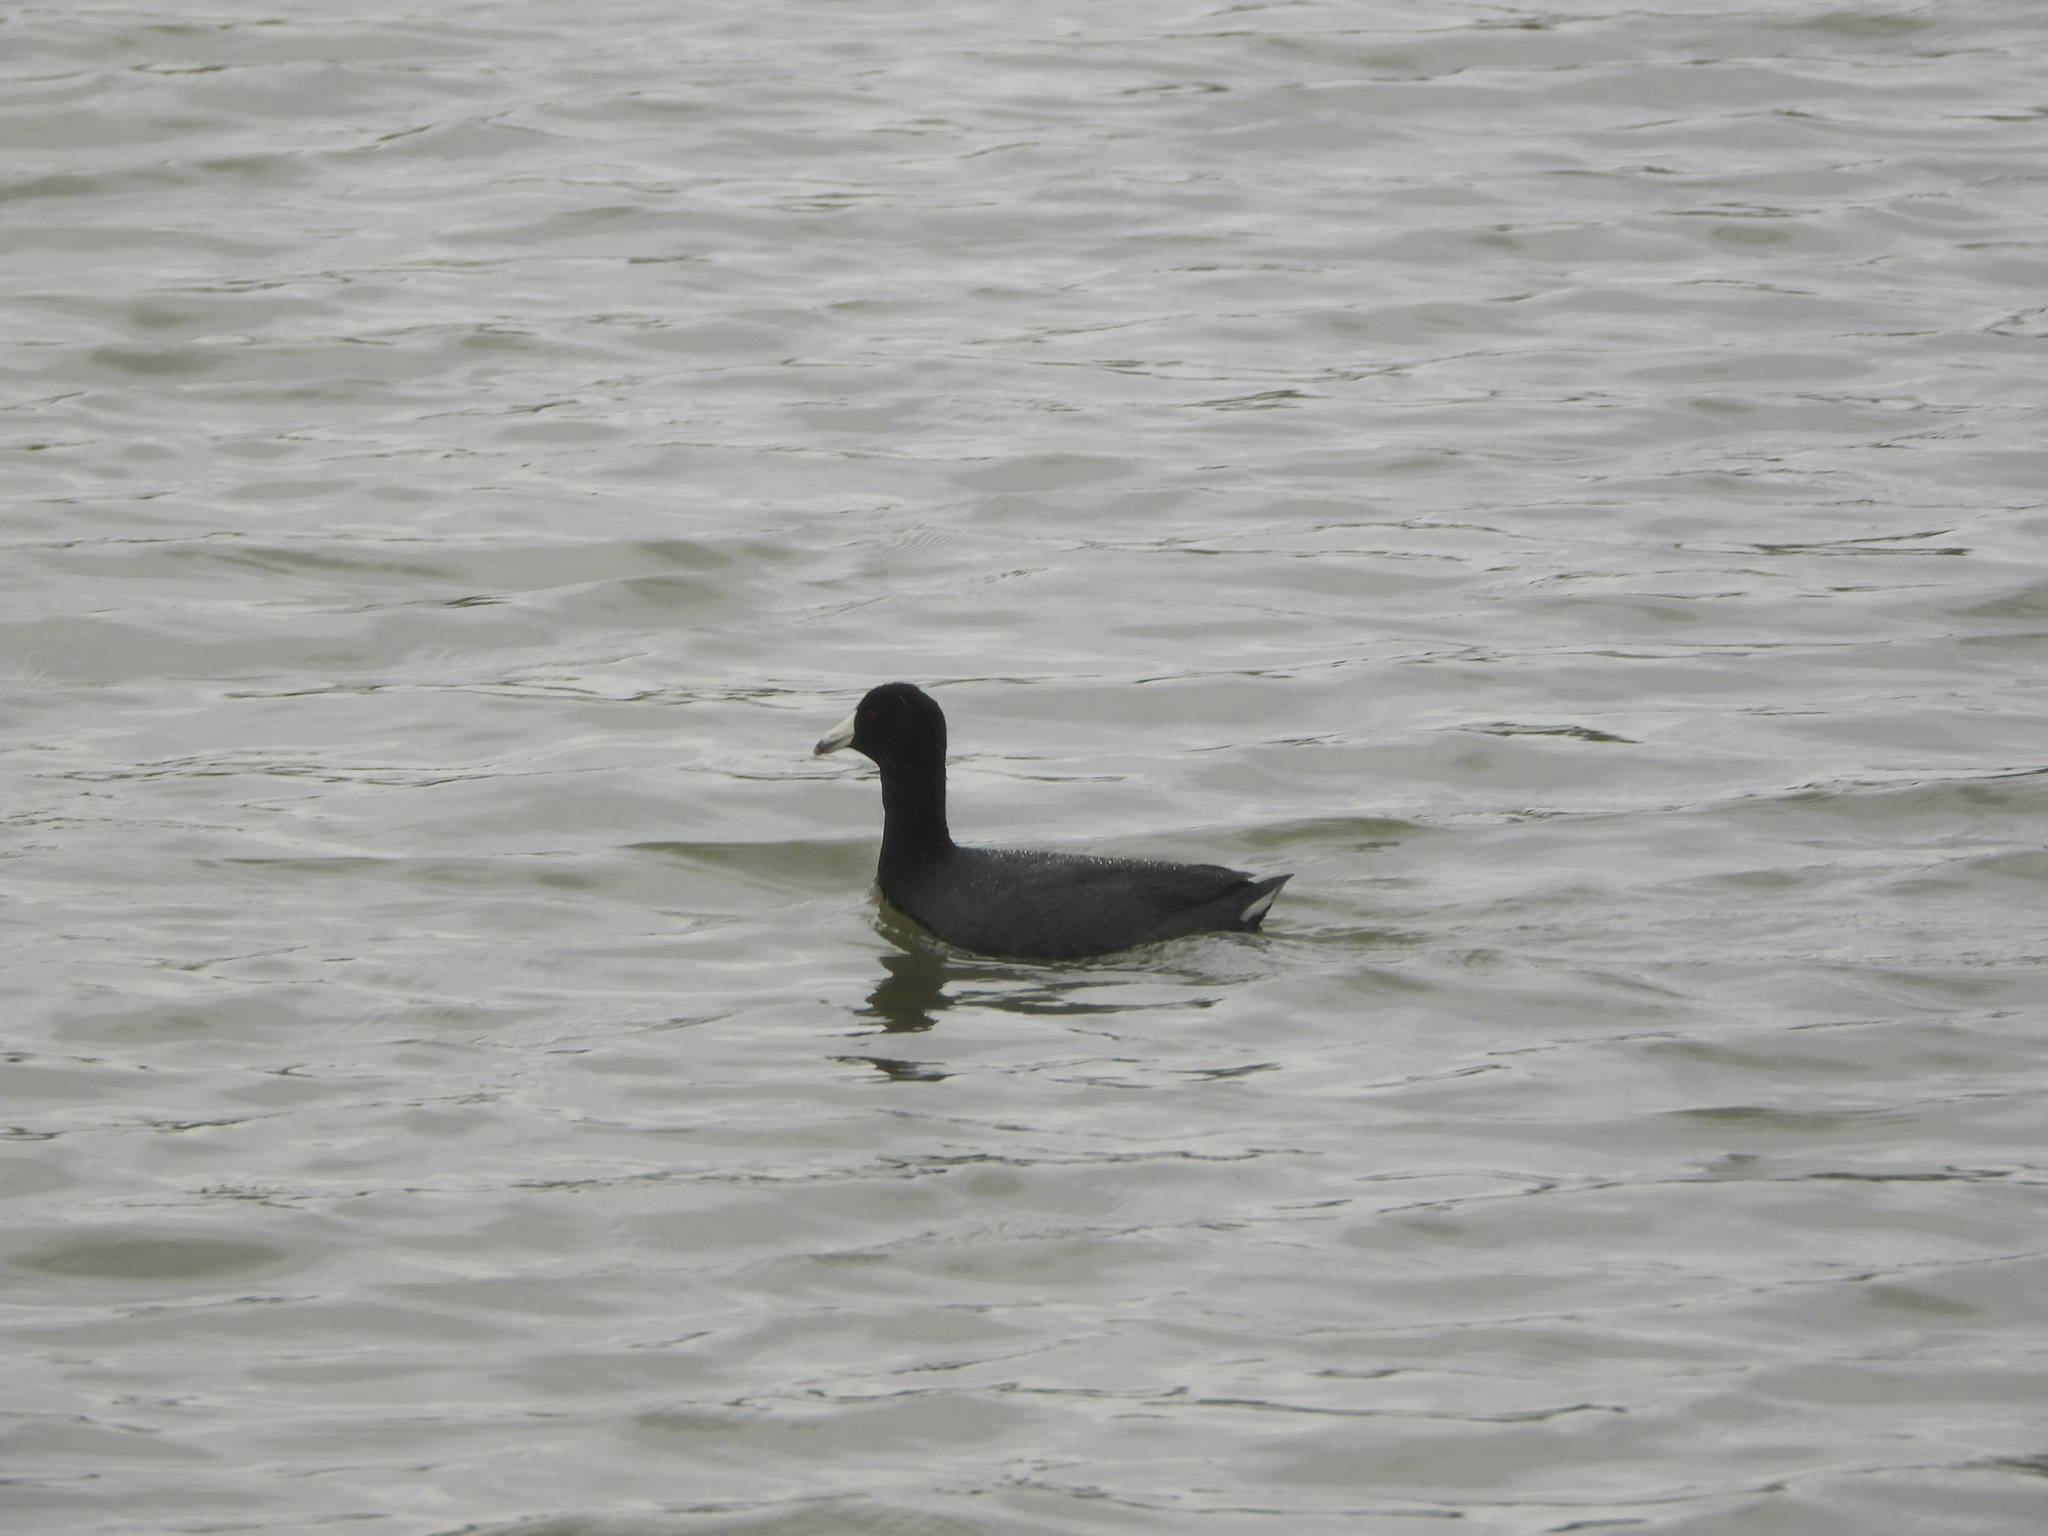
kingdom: Animalia
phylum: Chordata
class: Aves
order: Gruiformes
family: Rallidae
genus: Fulica
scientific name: Fulica americana
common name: American coot
